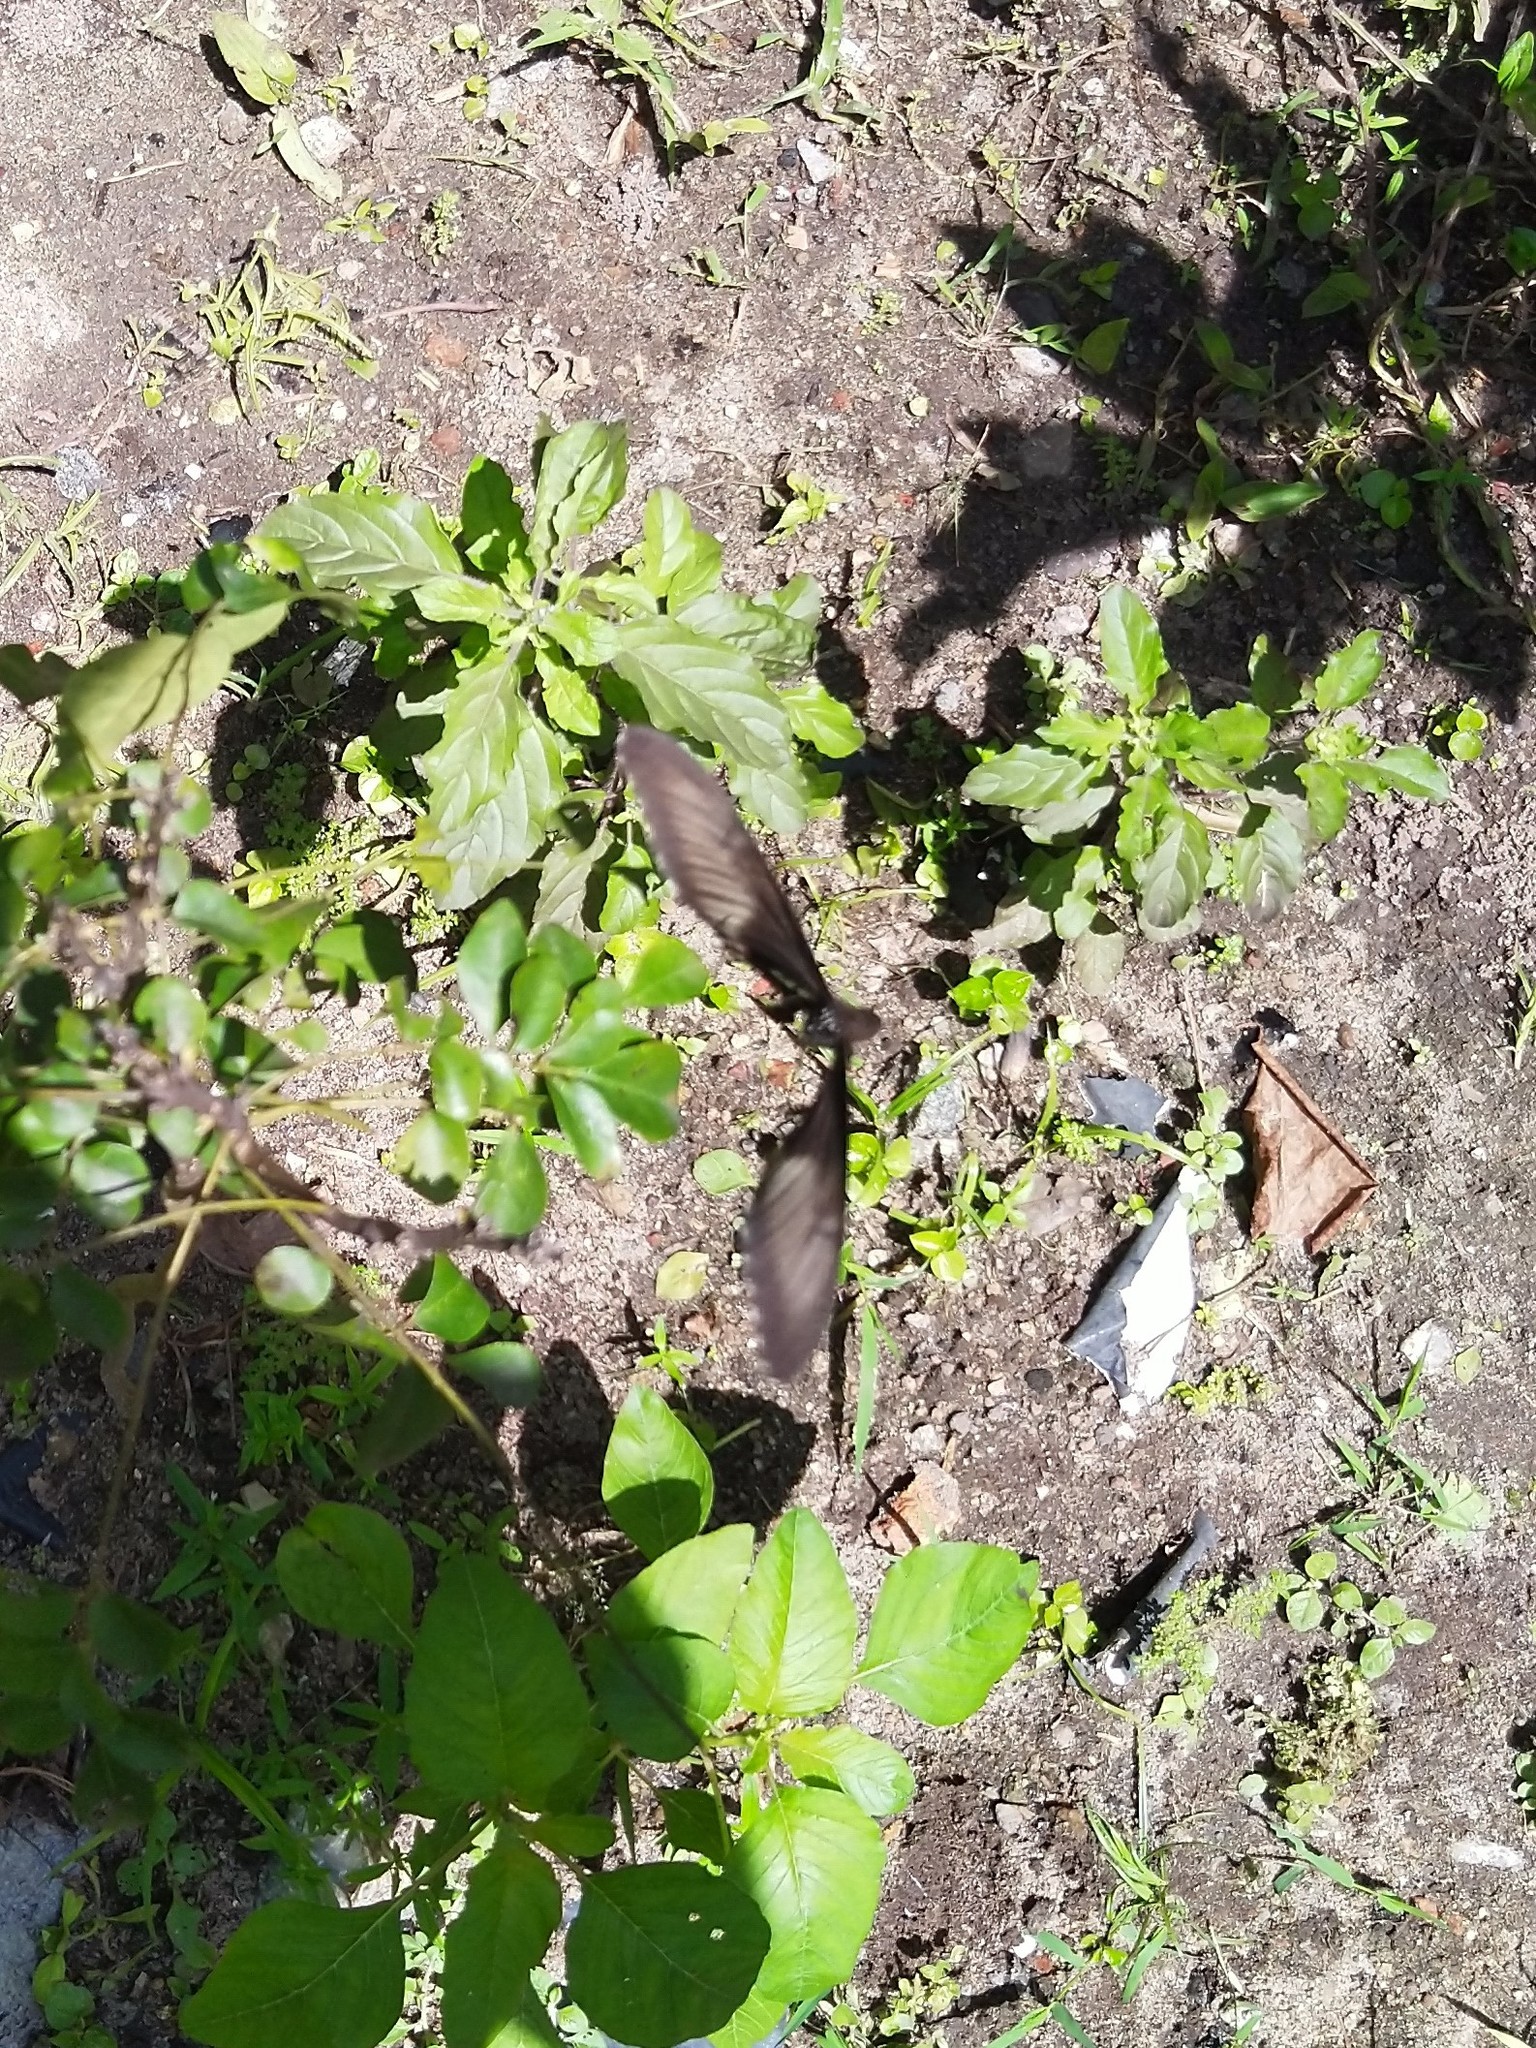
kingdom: Animalia
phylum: Arthropoda
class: Insecta
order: Lepidoptera
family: Papilionidae
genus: Papilio
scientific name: Papilio polytes
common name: Common mormon
